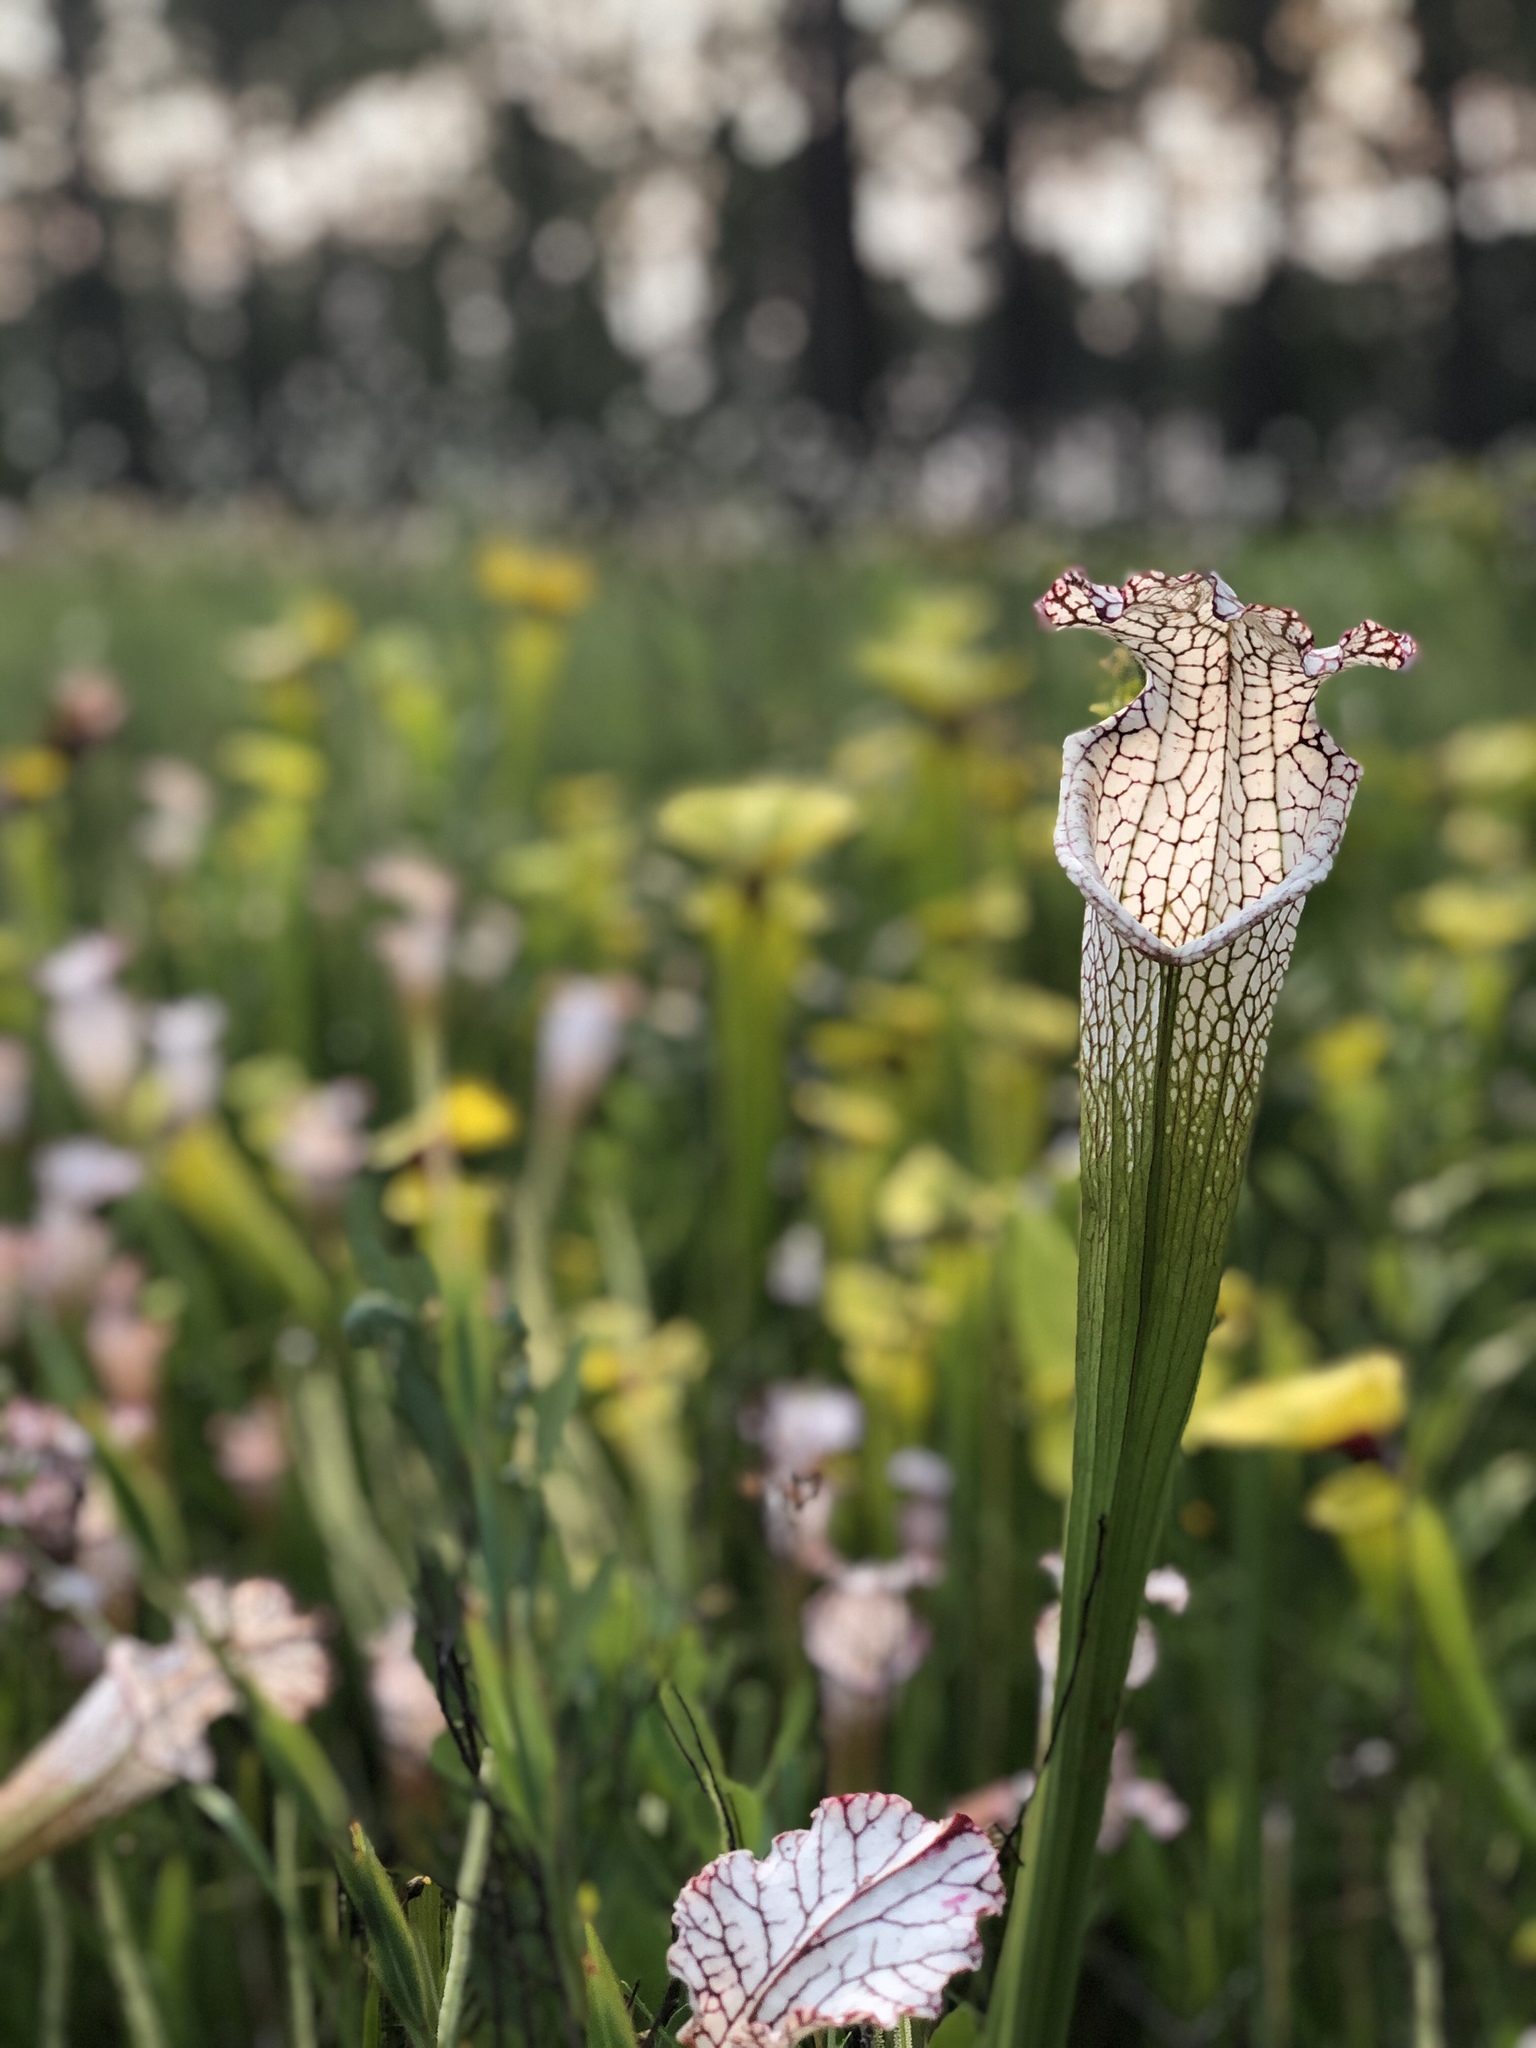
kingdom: Plantae
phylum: Tracheophyta
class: Magnoliopsida
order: Ericales
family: Sarraceniaceae
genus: Sarracenia
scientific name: Sarracenia leucophylla
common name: Purple trumpetleaf
